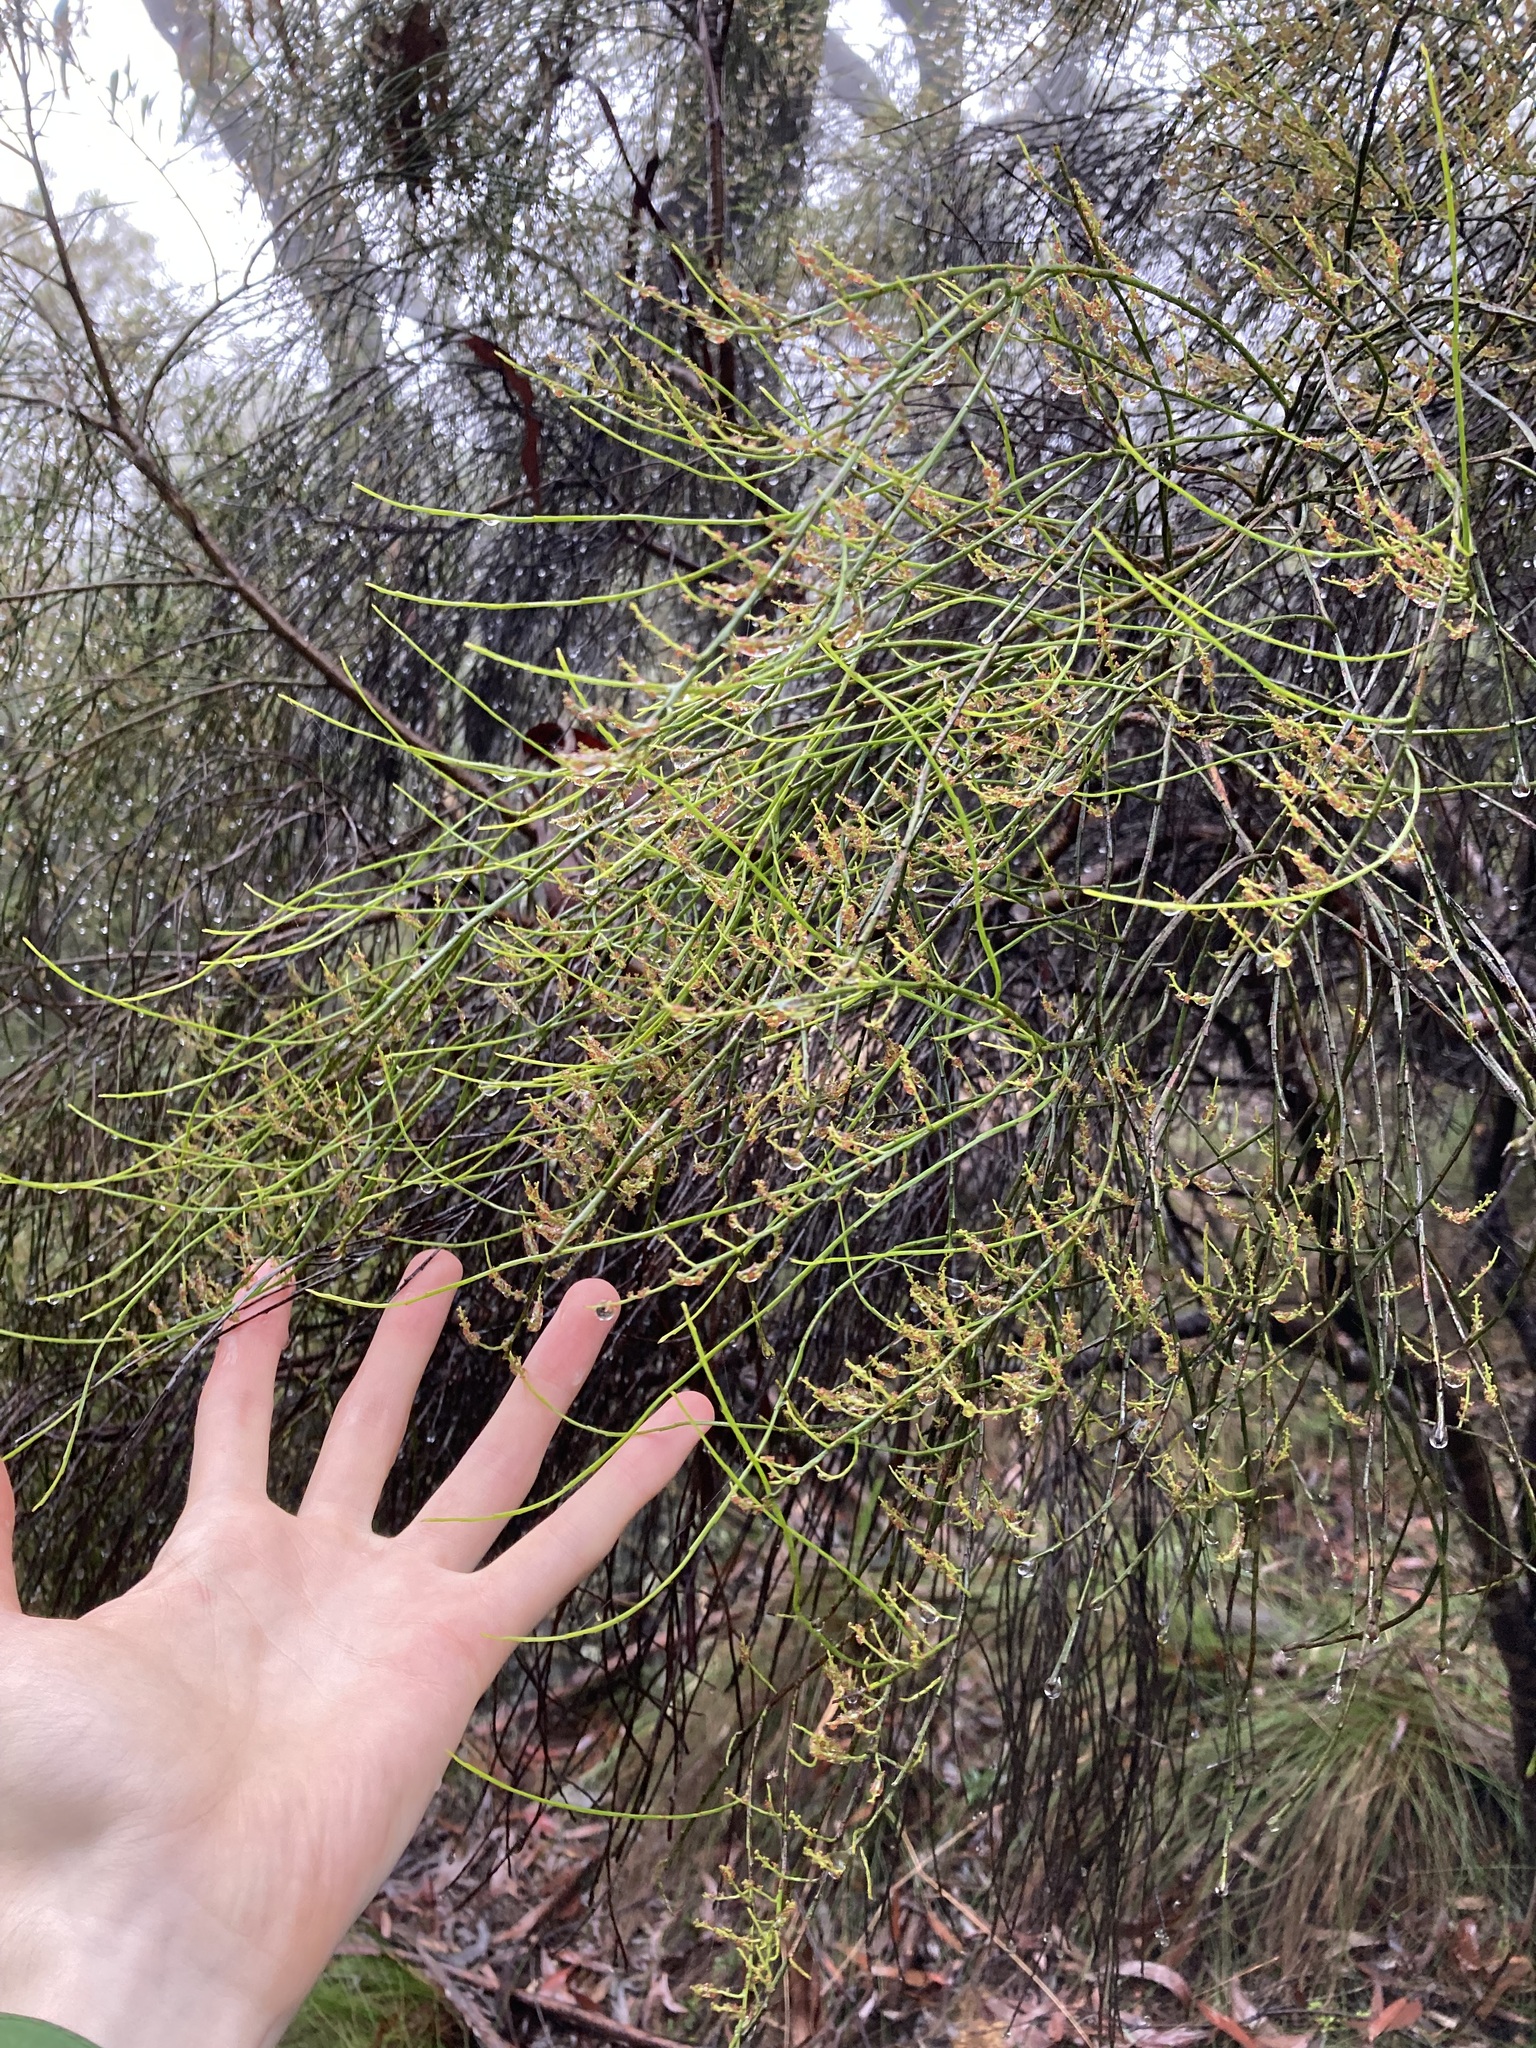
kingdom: Plantae
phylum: Tracheophyta
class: Magnoliopsida
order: Santalales
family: Amphorogynaceae
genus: Leptomeria
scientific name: Leptomeria acida
